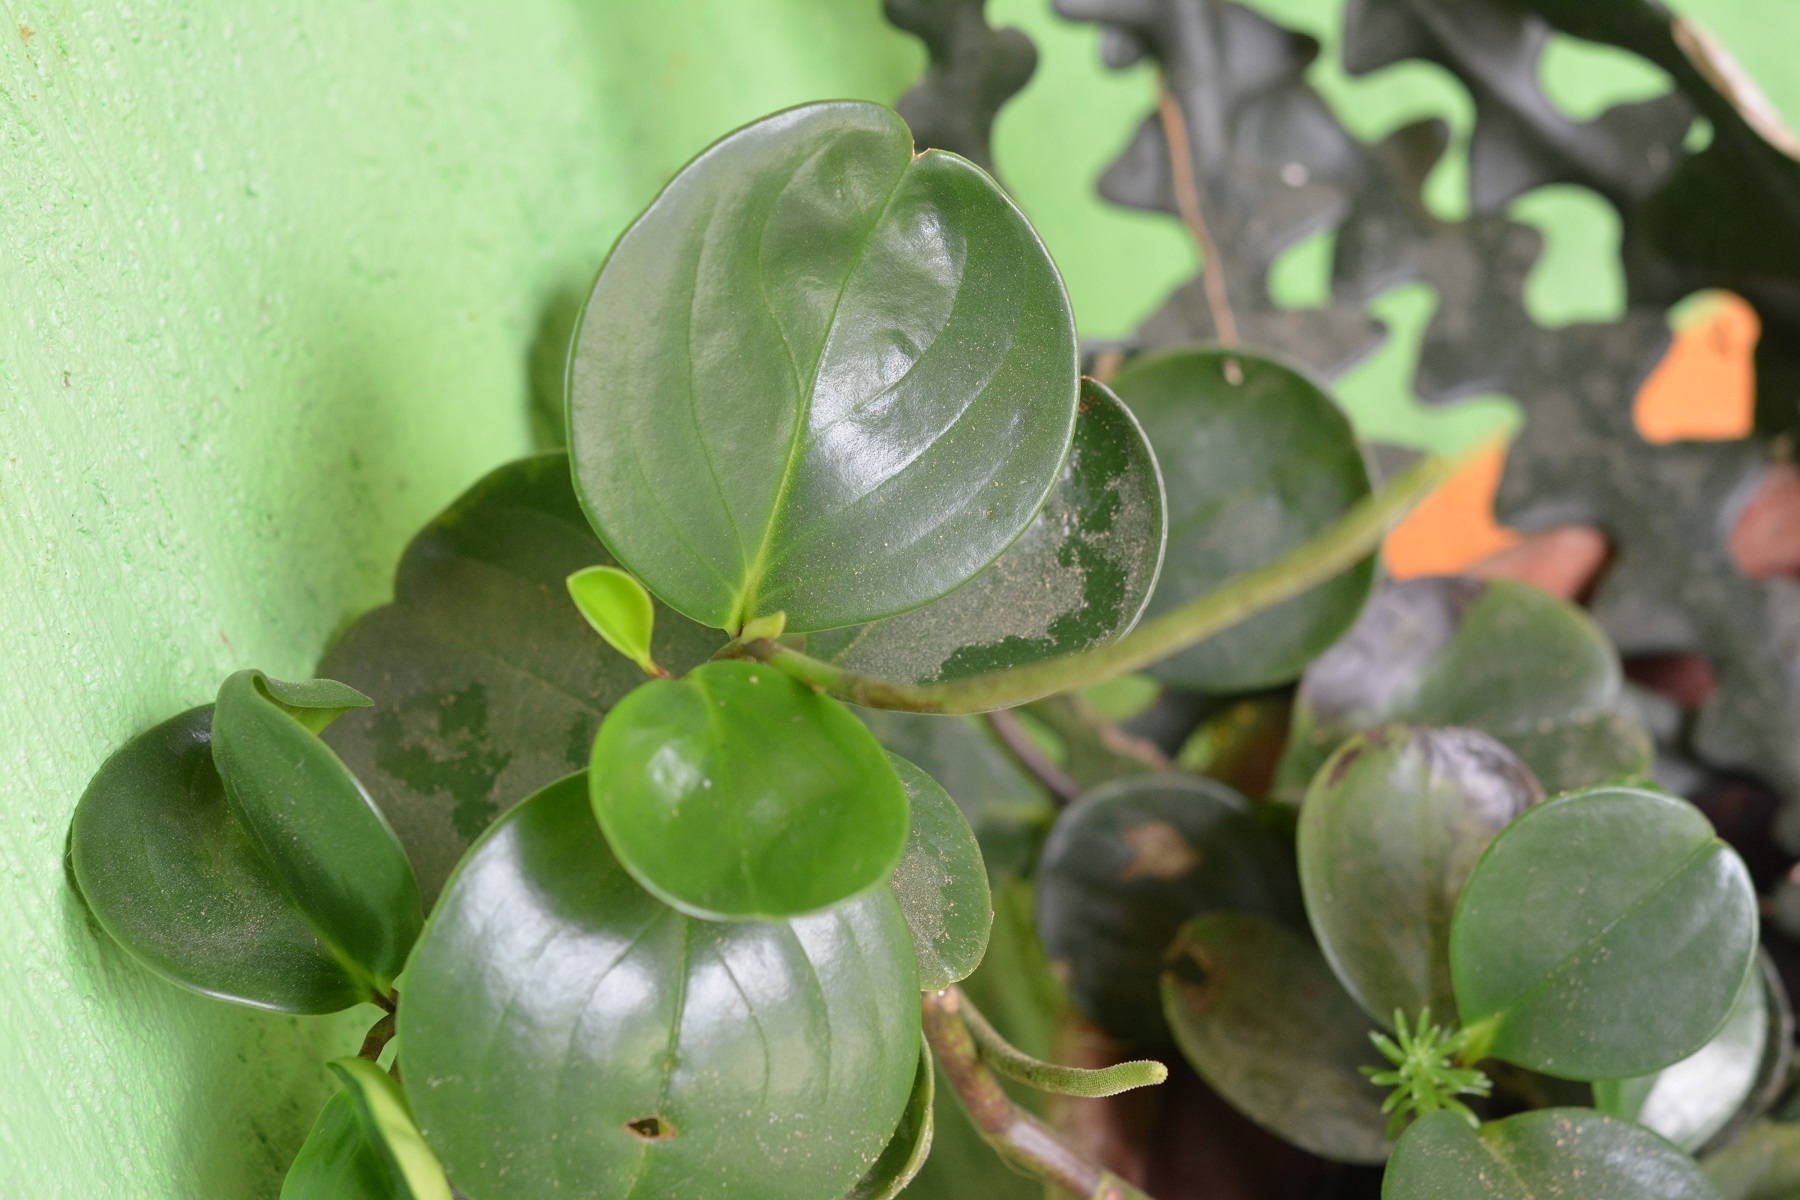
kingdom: Plantae
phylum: Tracheophyta
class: Magnoliopsida
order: Piperales
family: Piperaceae
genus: Peperomia
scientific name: Peperomia magnoliifolia
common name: Spoonleaf peperomia
